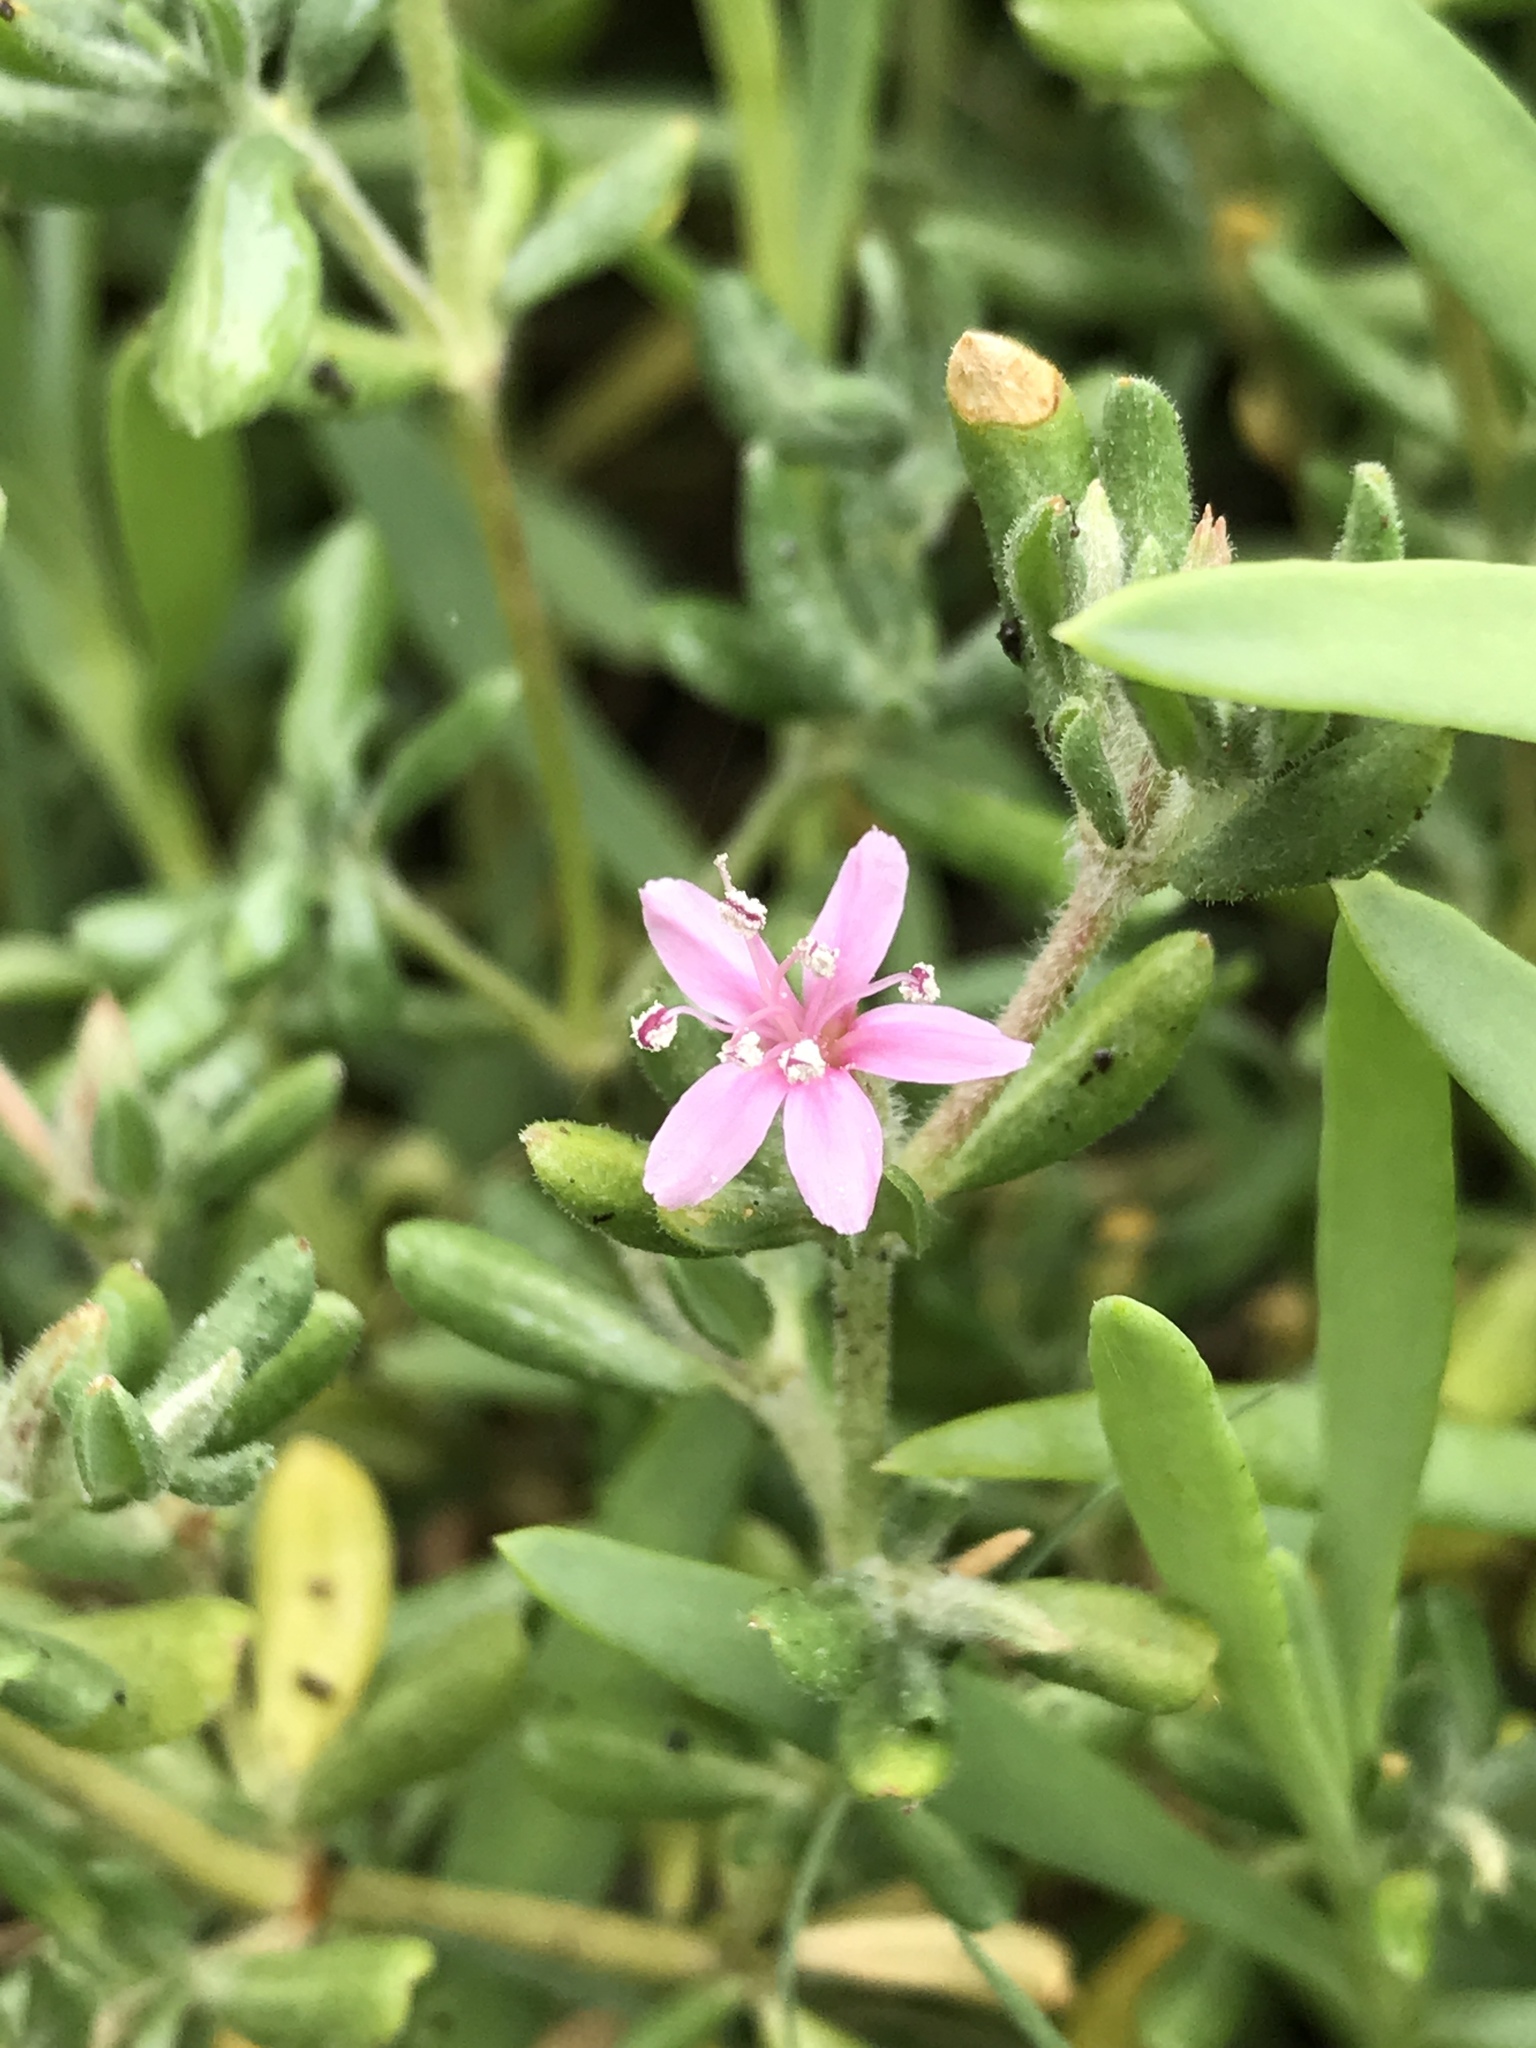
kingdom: Plantae
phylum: Tracheophyta
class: Magnoliopsida
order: Caryophyllales
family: Frankeniaceae
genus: Frankenia
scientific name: Frankenia salina
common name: Alkali seaheath
